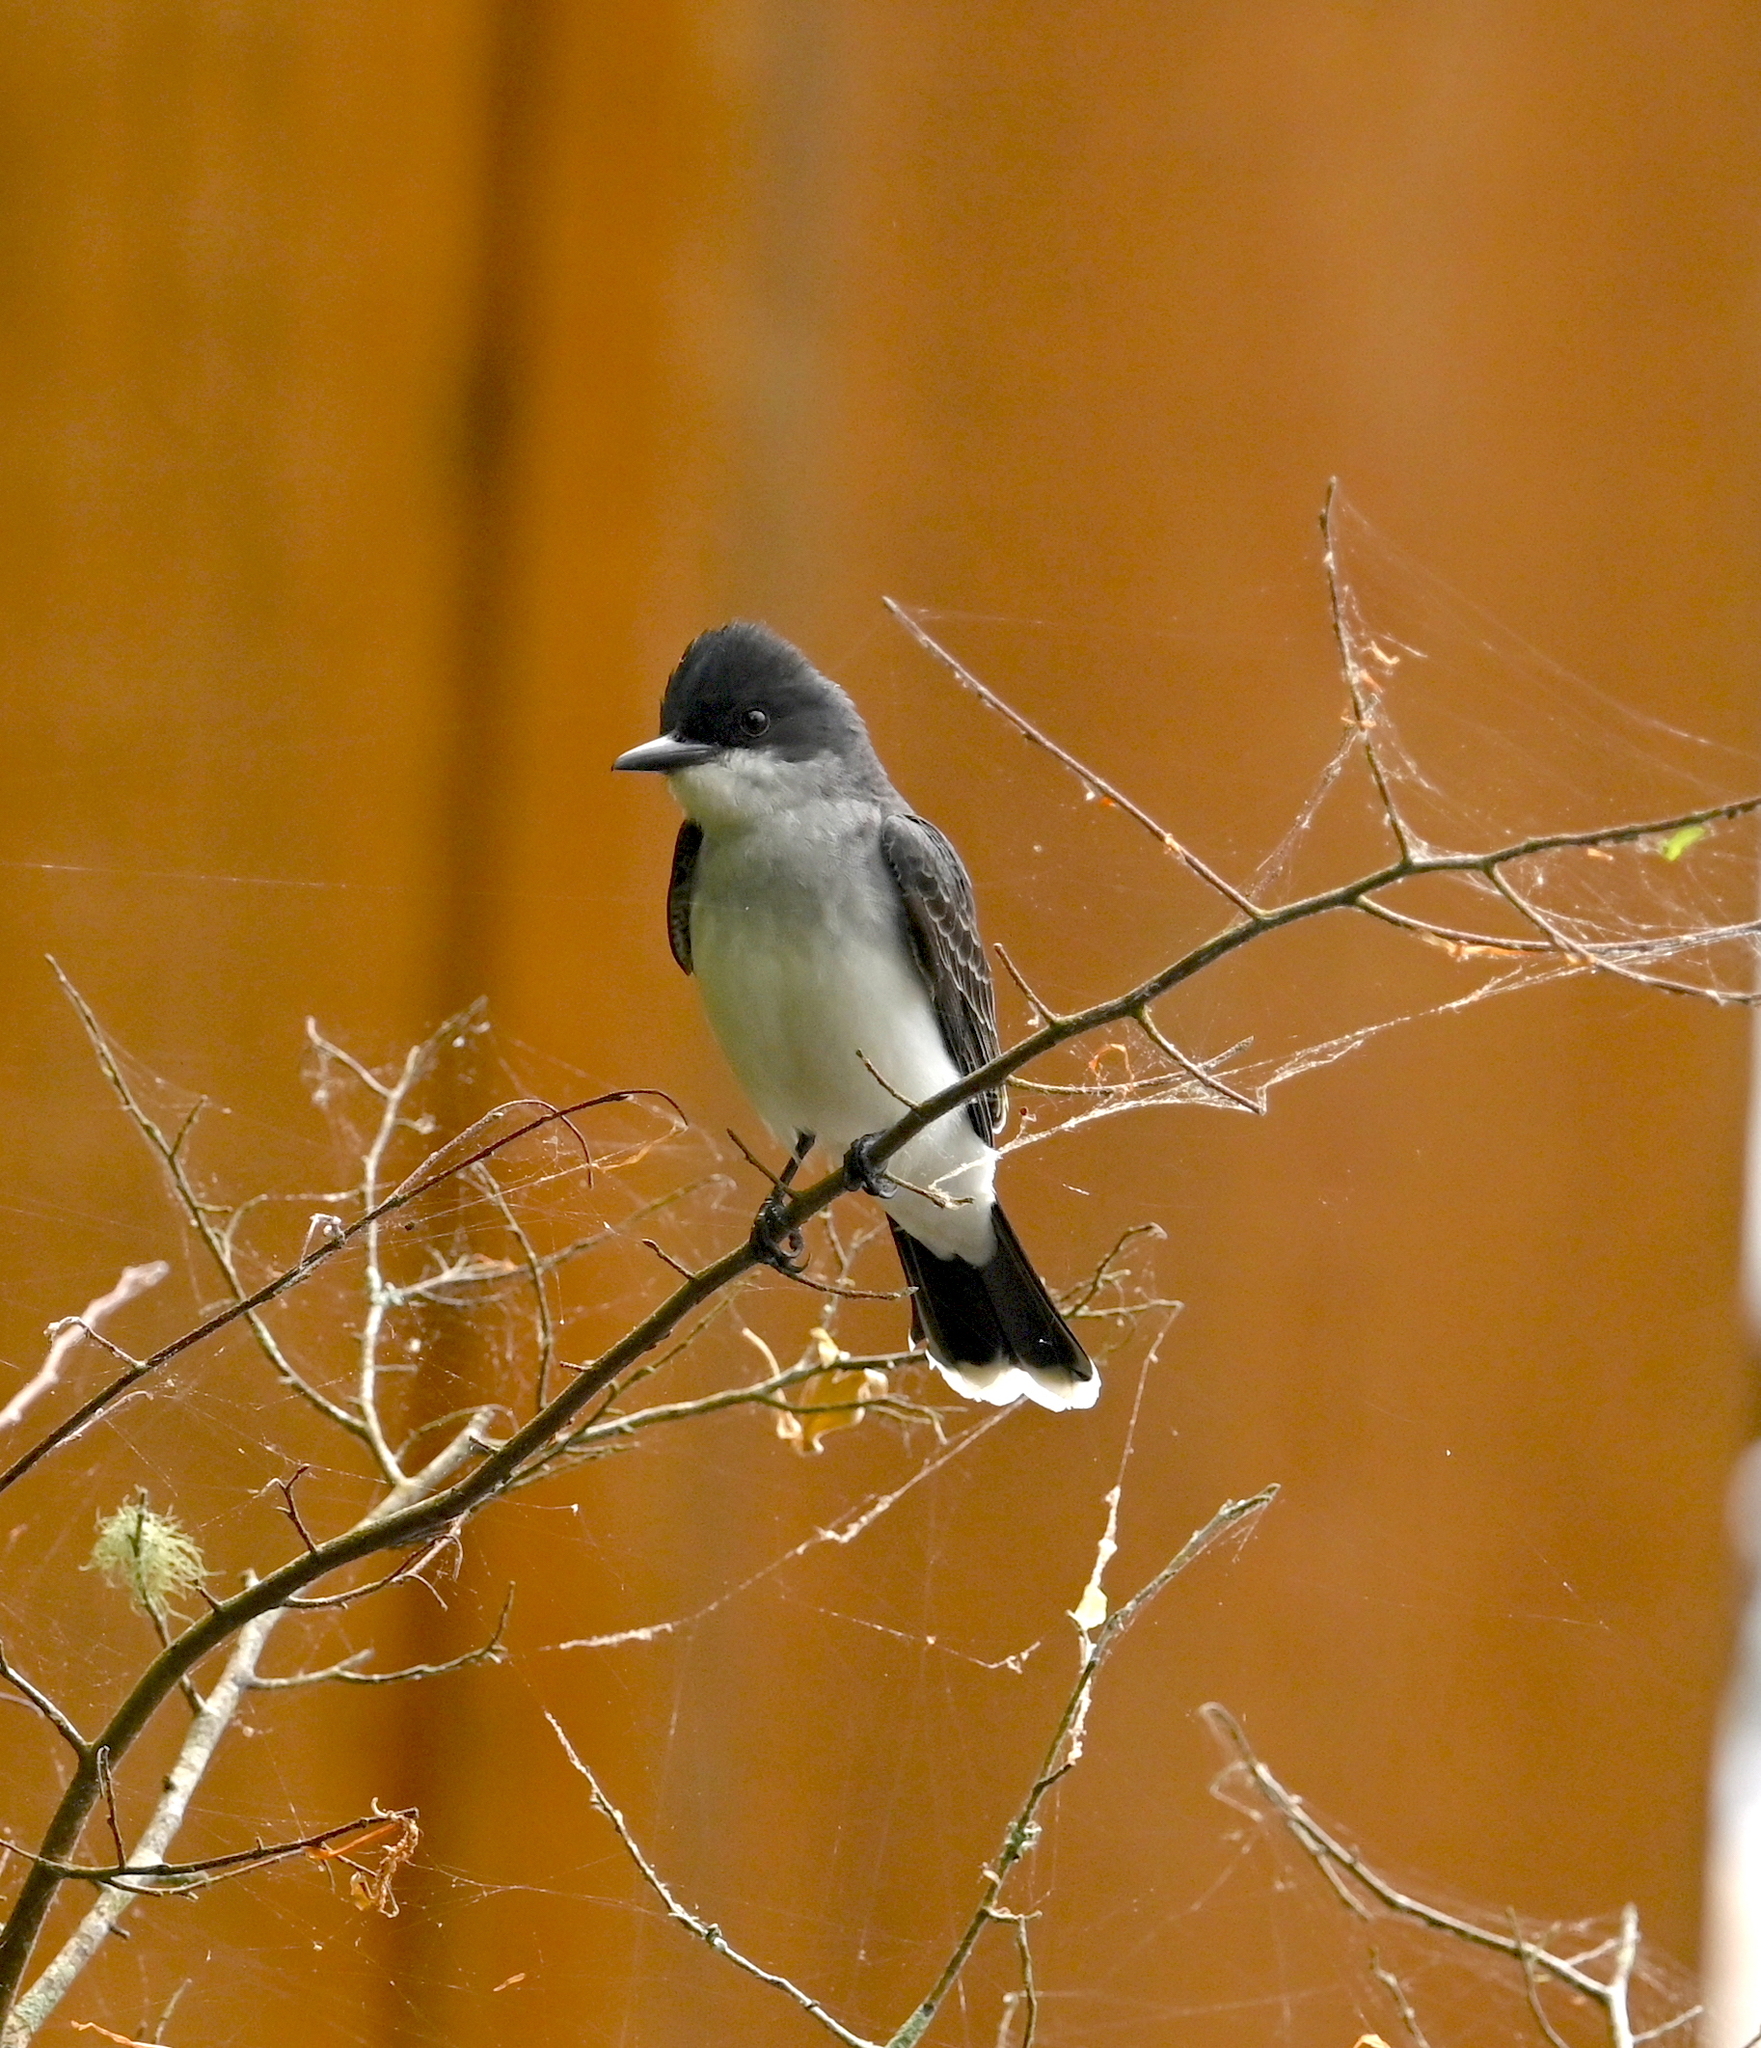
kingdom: Animalia
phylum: Chordata
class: Aves
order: Passeriformes
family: Tyrannidae
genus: Tyrannus
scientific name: Tyrannus tyrannus
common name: Eastern kingbird
